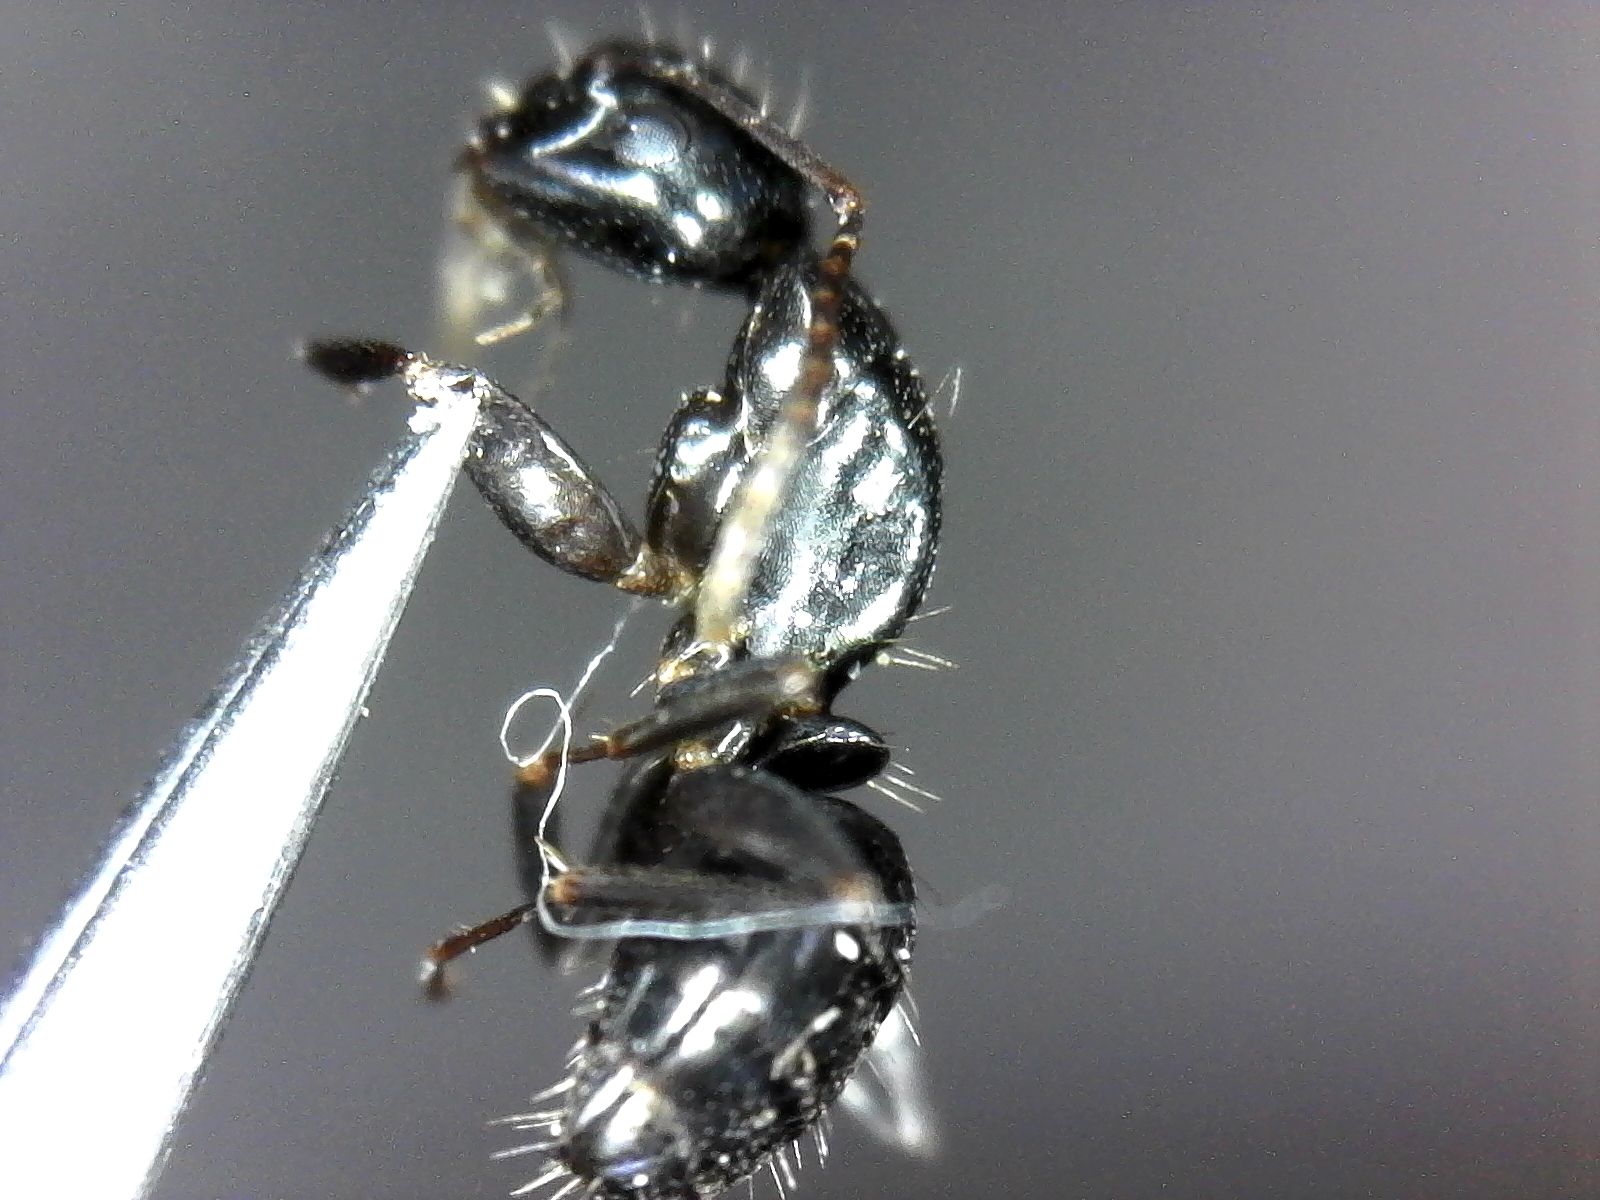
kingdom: Animalia
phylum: Arthropoda
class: Insecta
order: Hymenoptera
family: Formicidae
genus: Camponotus
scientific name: Camponotus pennsylvanicus
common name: Black carpenter ant
